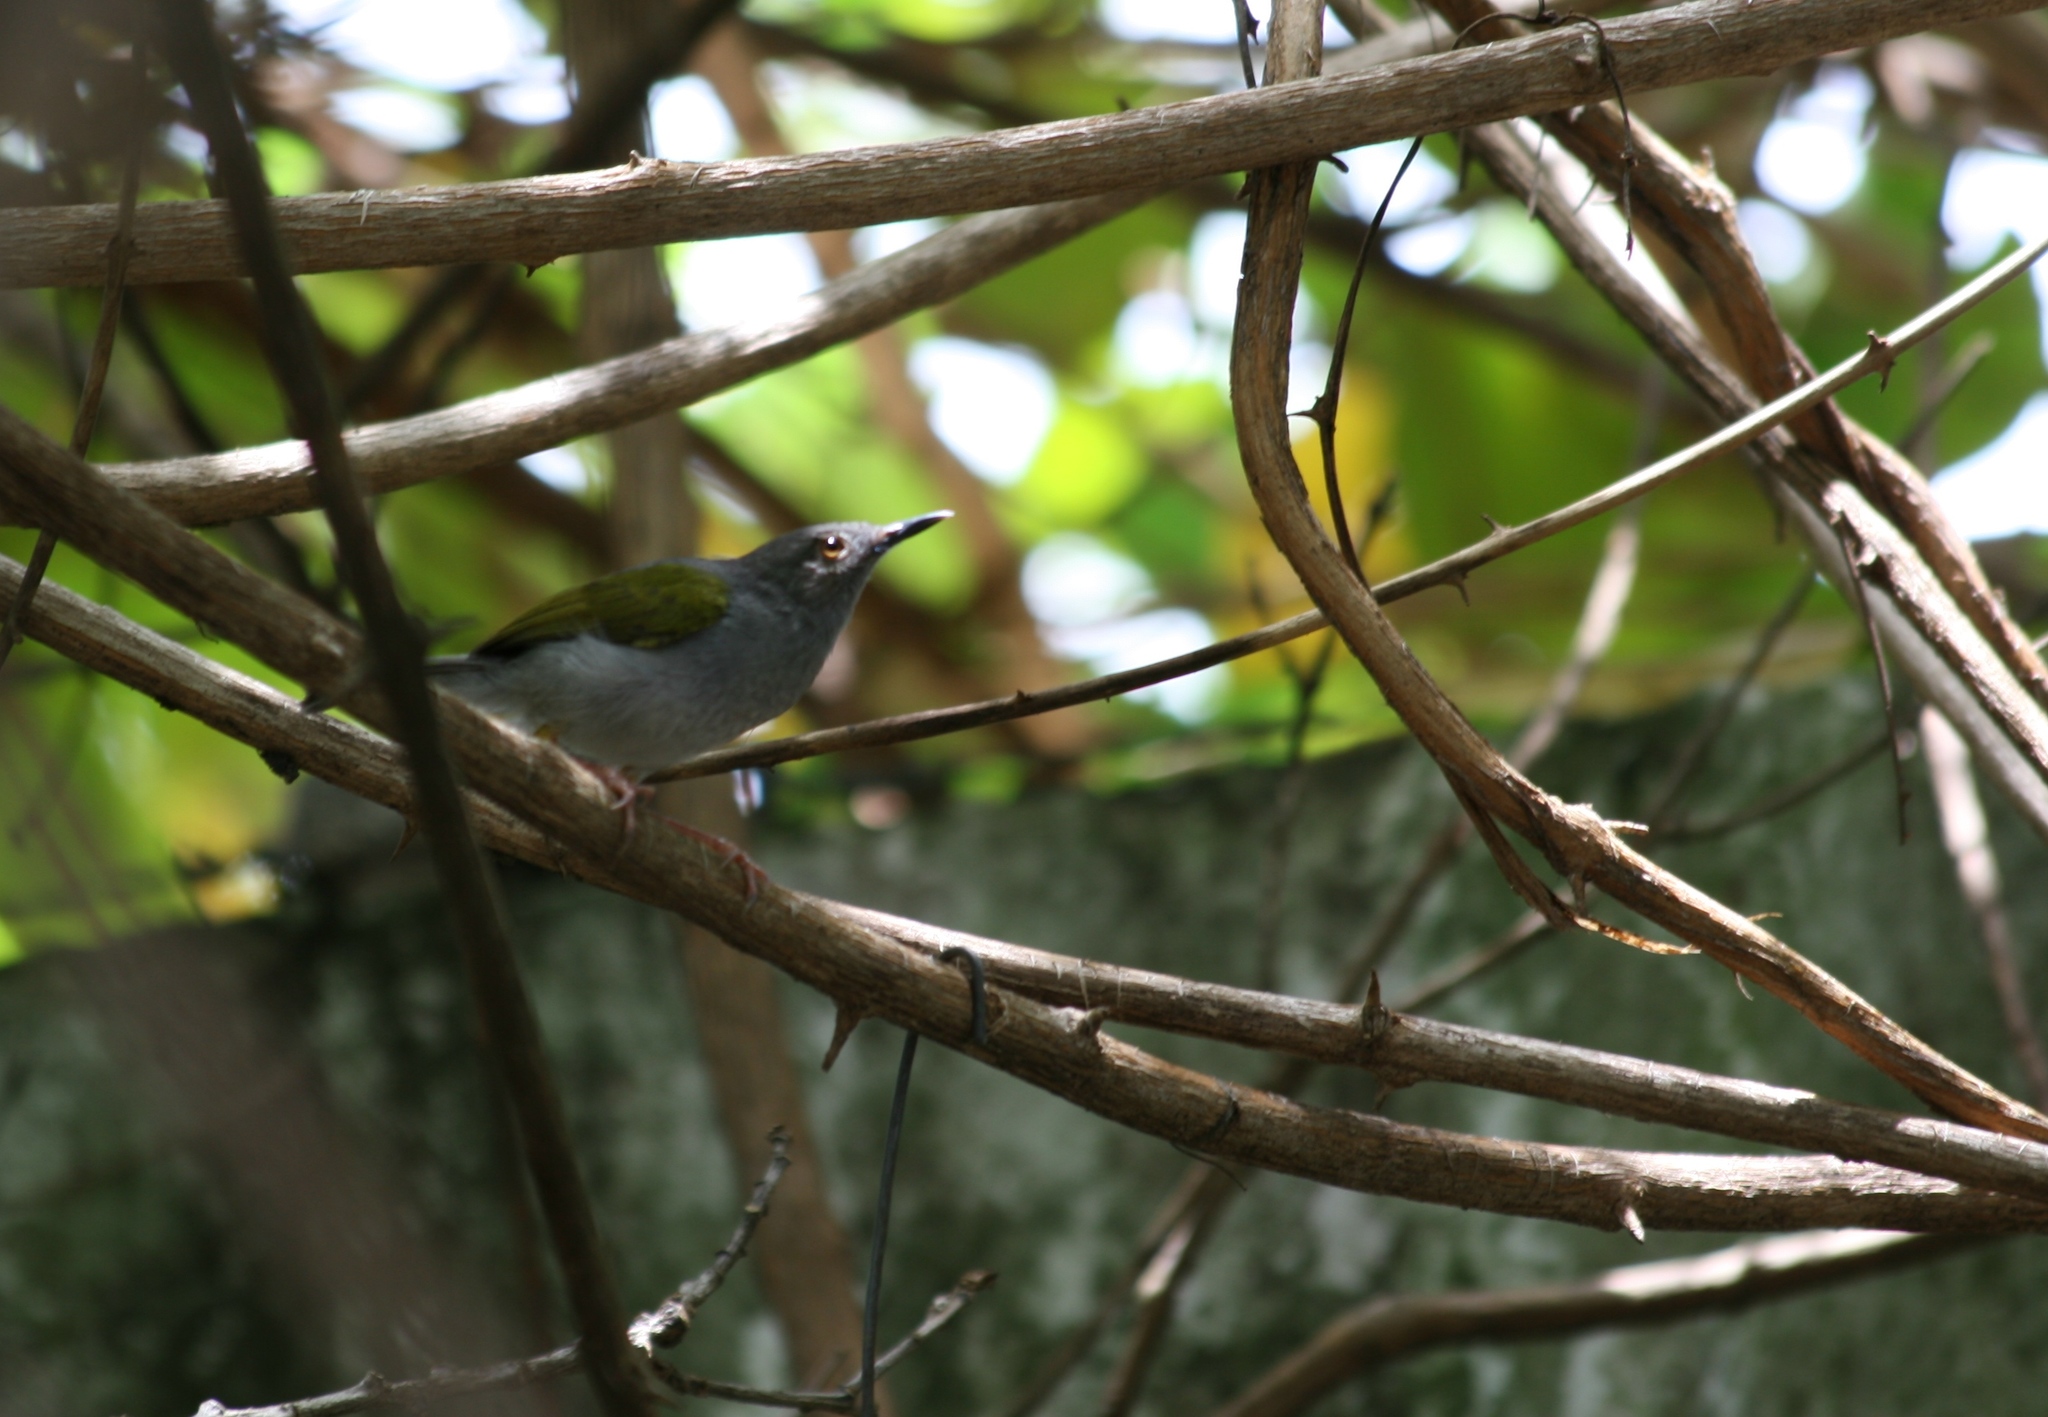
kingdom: Animalia
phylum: Chordata
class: Aves
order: Passeriformes
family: Cisticolidae
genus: Camaroptera
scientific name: Camaroptera brachyura
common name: Green-backed camaroptera
